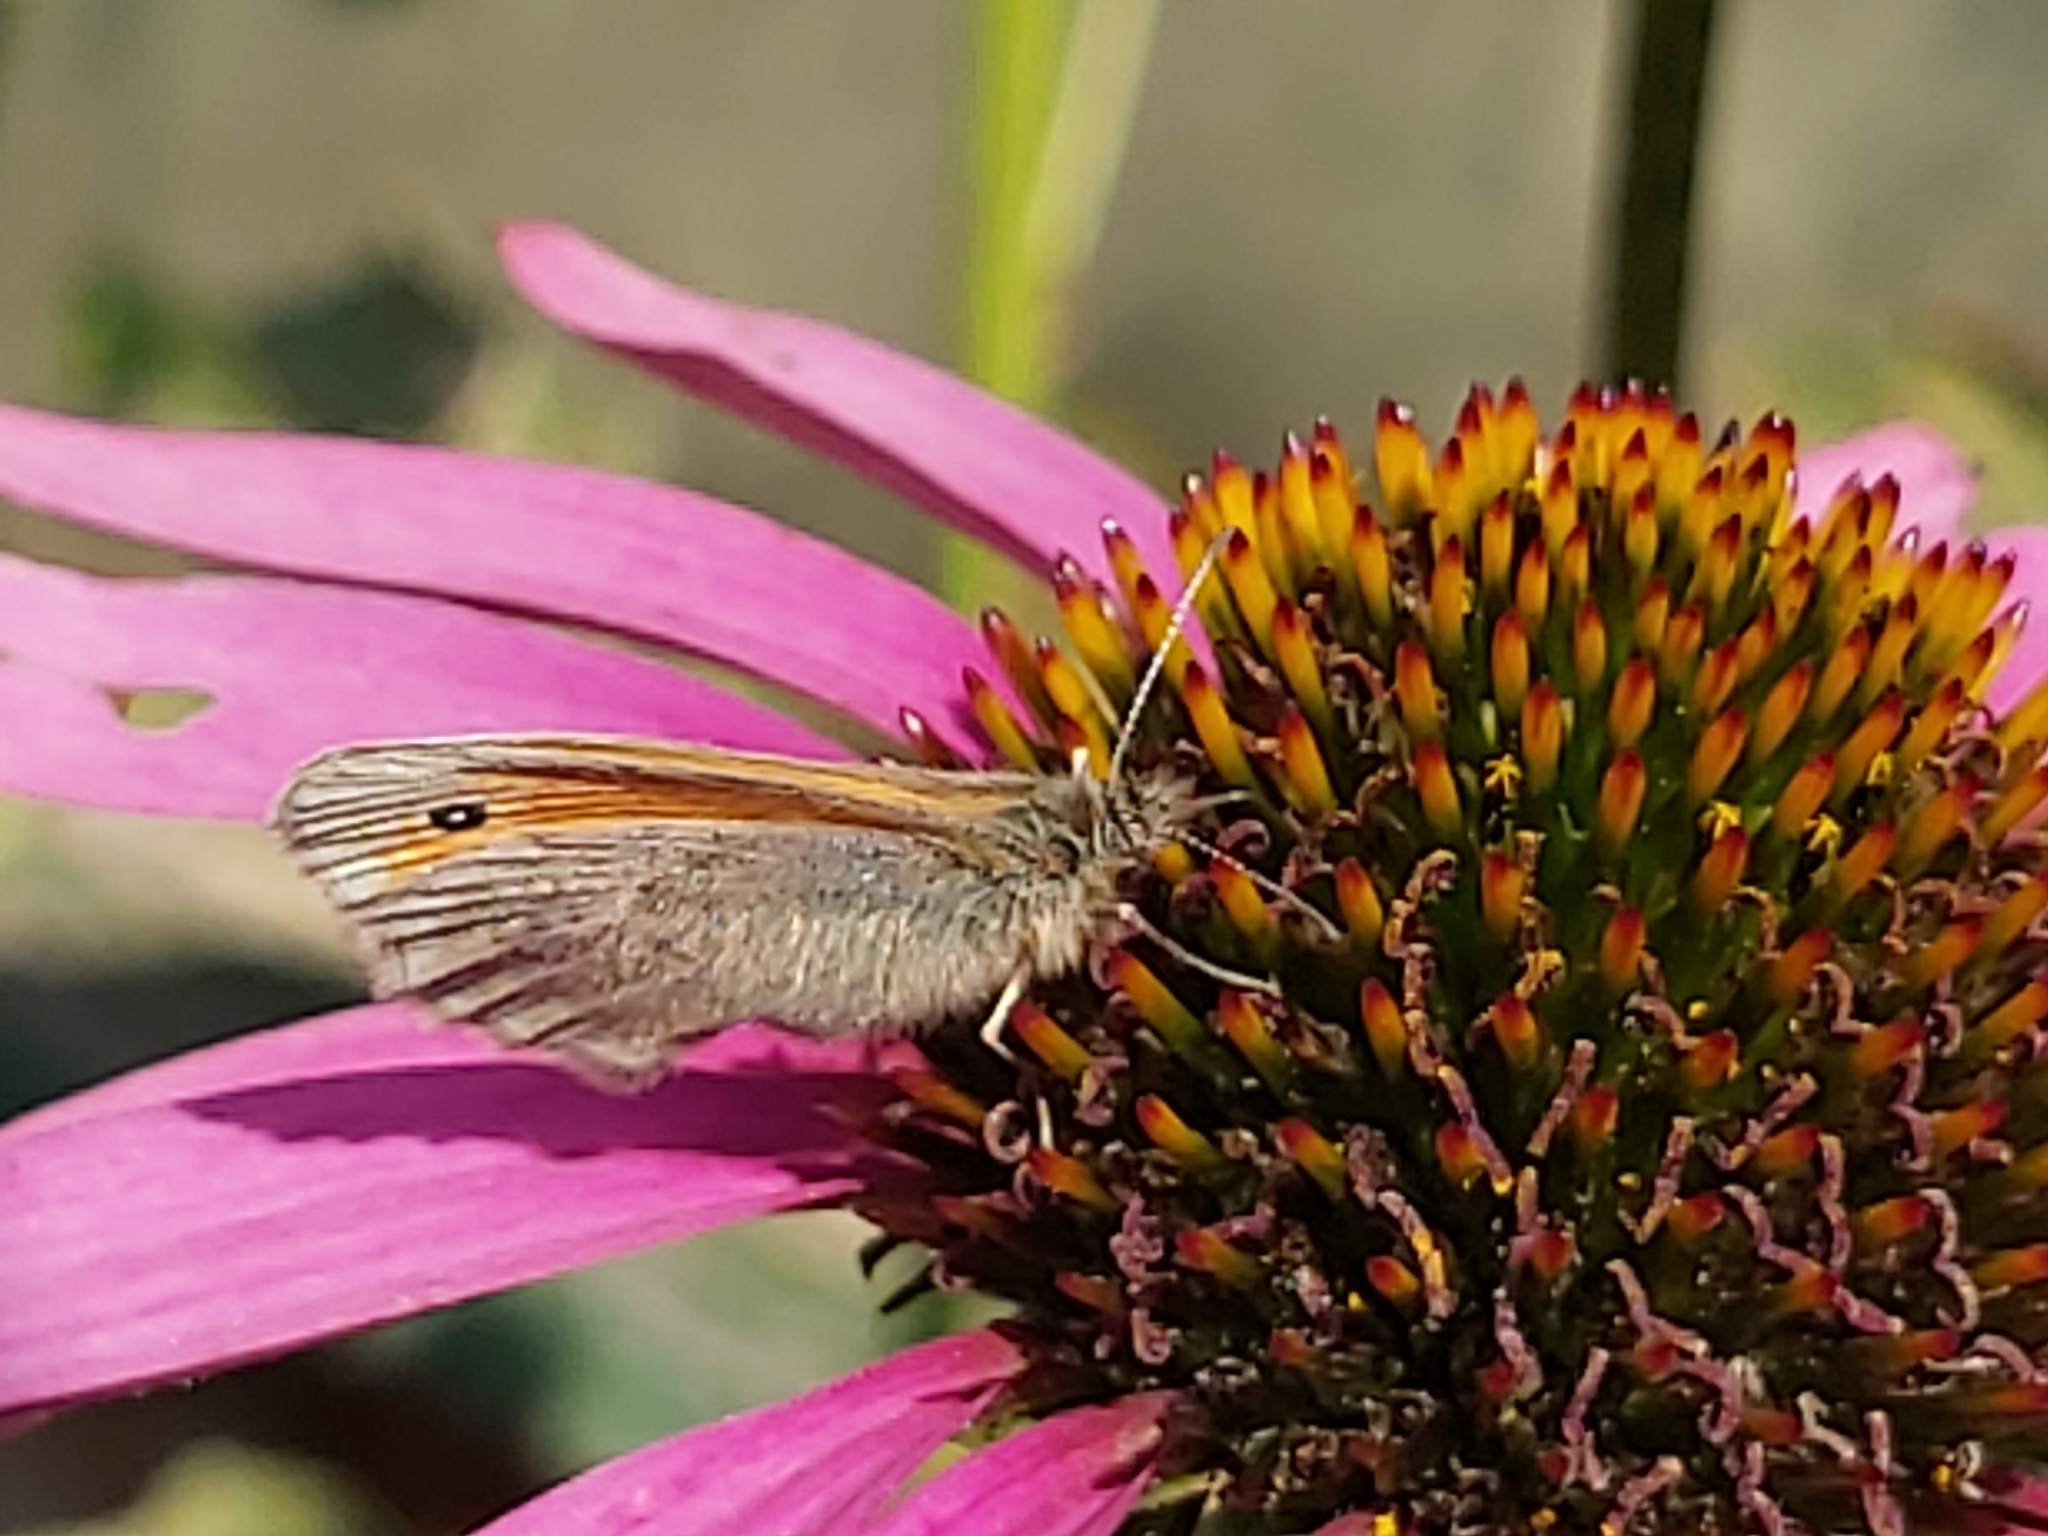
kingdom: Animalia
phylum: Arthropoda
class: Insecta
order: Lepidoptera
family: Nymphalidae
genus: Coenonympha
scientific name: Coenonympha pamphilus
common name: Small heath
